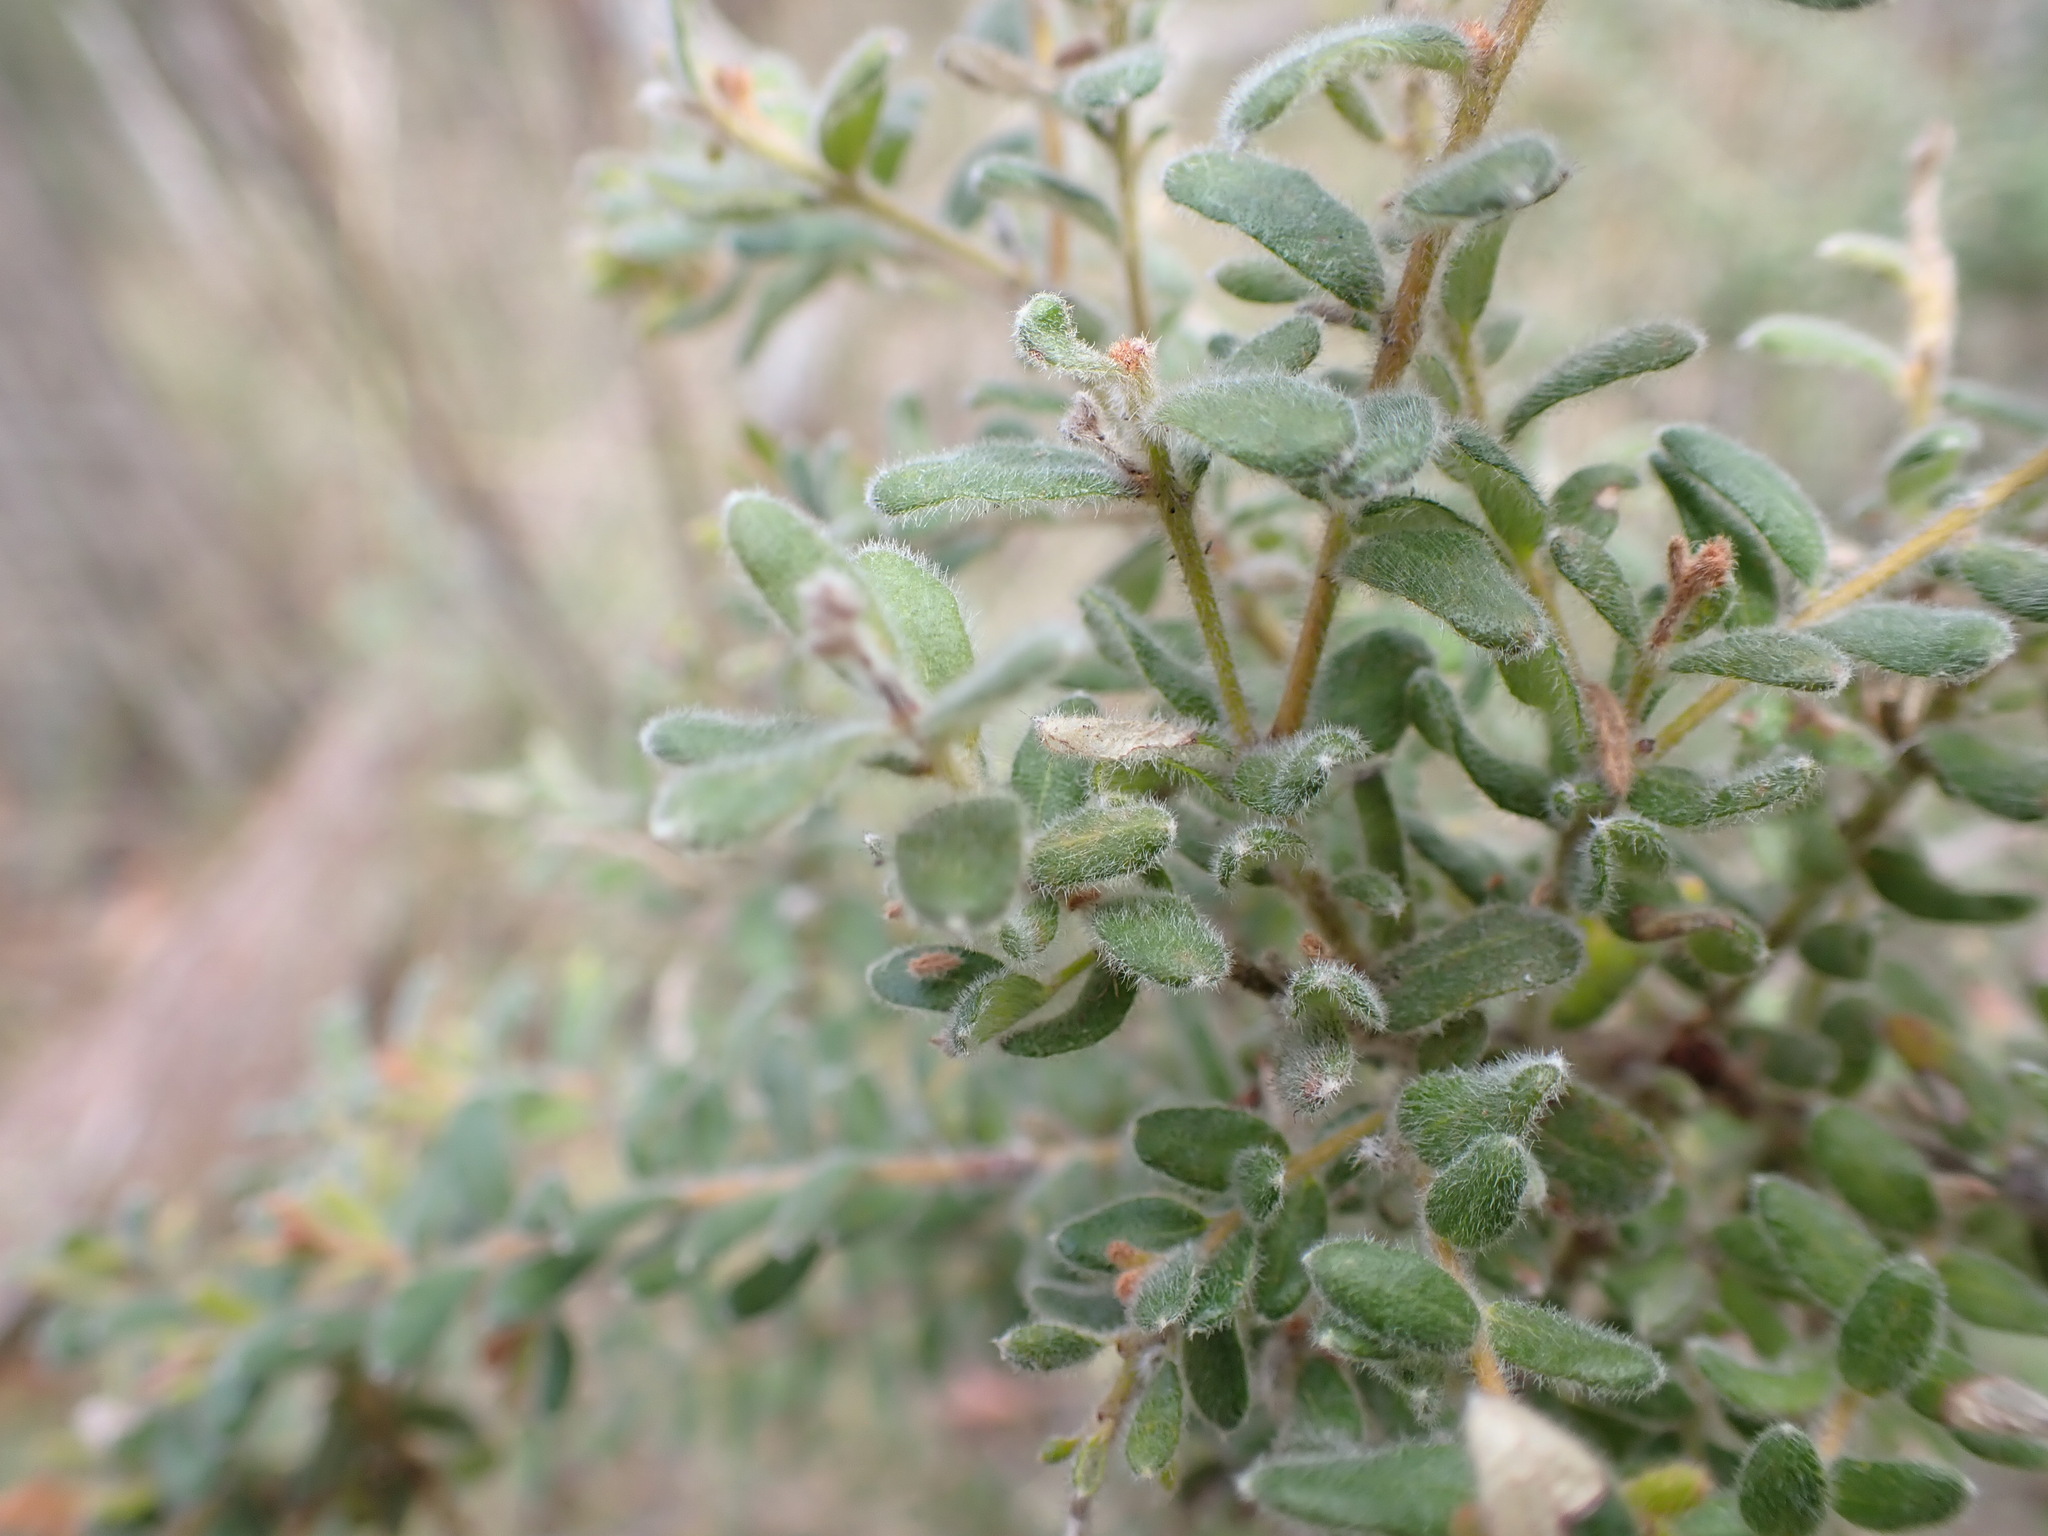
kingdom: Plantae
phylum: Tracheophyta
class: Magnoliopsida
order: Proteales
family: Proteaceae
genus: Grevillea
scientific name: Grevillea alpina
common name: Catclaws grevillea
